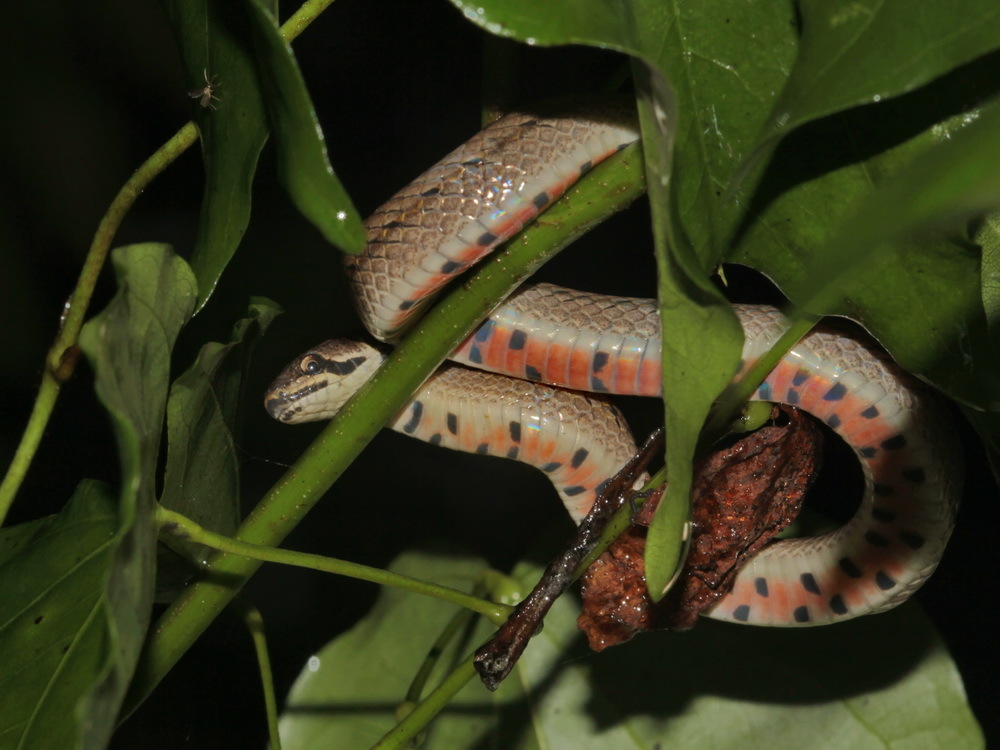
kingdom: Animalia
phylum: Chordata
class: Squamata
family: Colubridae
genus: Oligodon
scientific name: Oligodon mouhoti
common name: Cambodian kukri snake
